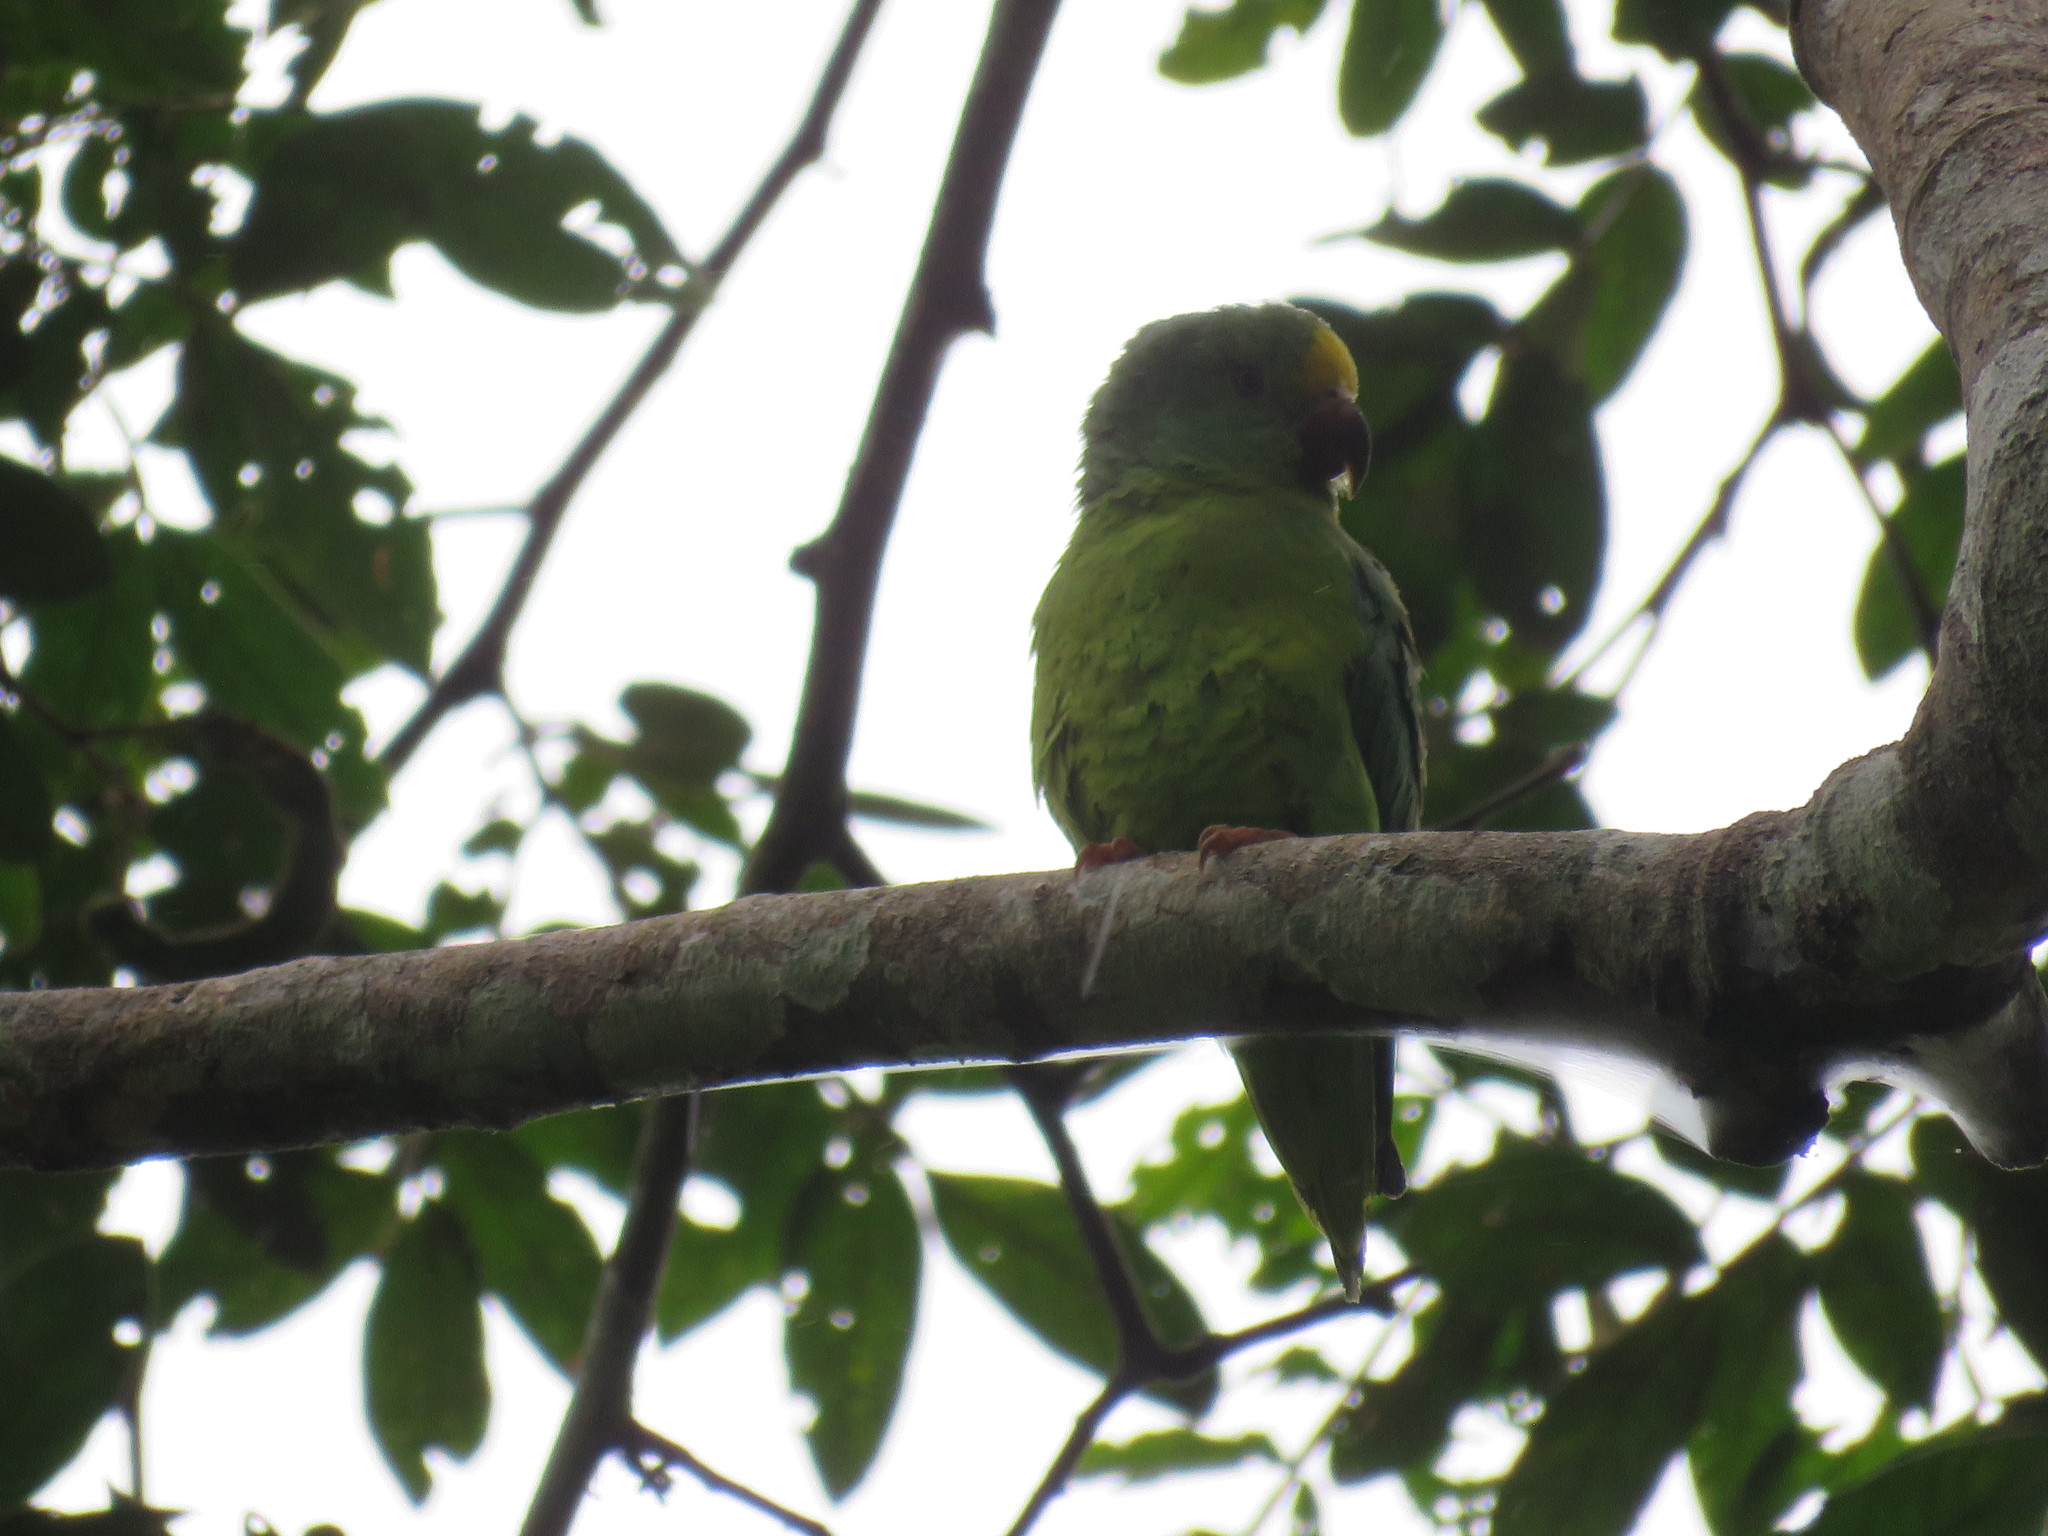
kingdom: Animalia
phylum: Chordata
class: Aves
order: Psittaciformes
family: Psittacidae
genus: Brotogeris
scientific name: Brotogeris sanctithomae
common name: Tui parakeet
